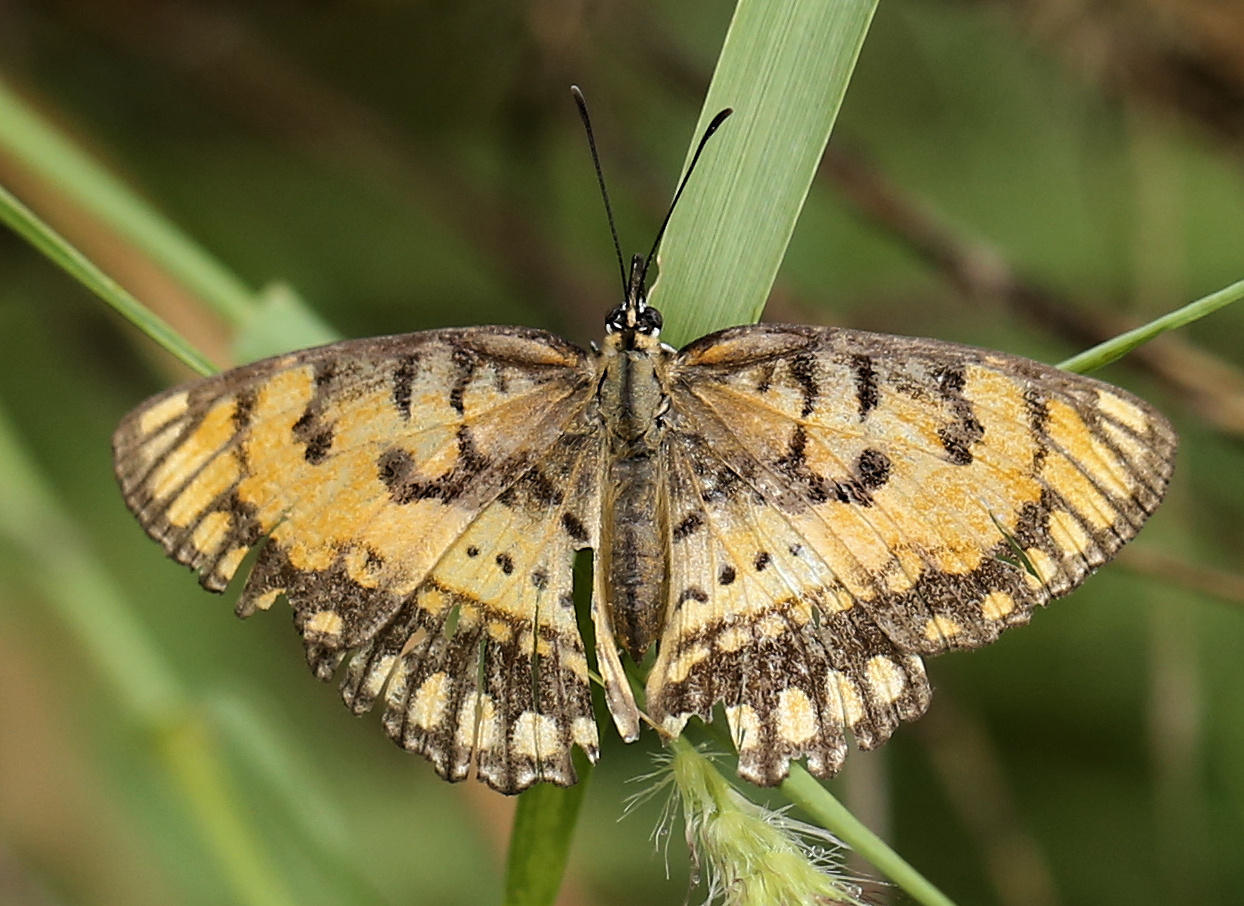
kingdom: Animalia
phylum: Arthropoda
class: Insecta
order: Lepidoptera
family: Nymphalidae
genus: Byblia
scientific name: Byblia ilithyia
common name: Spotted joker
